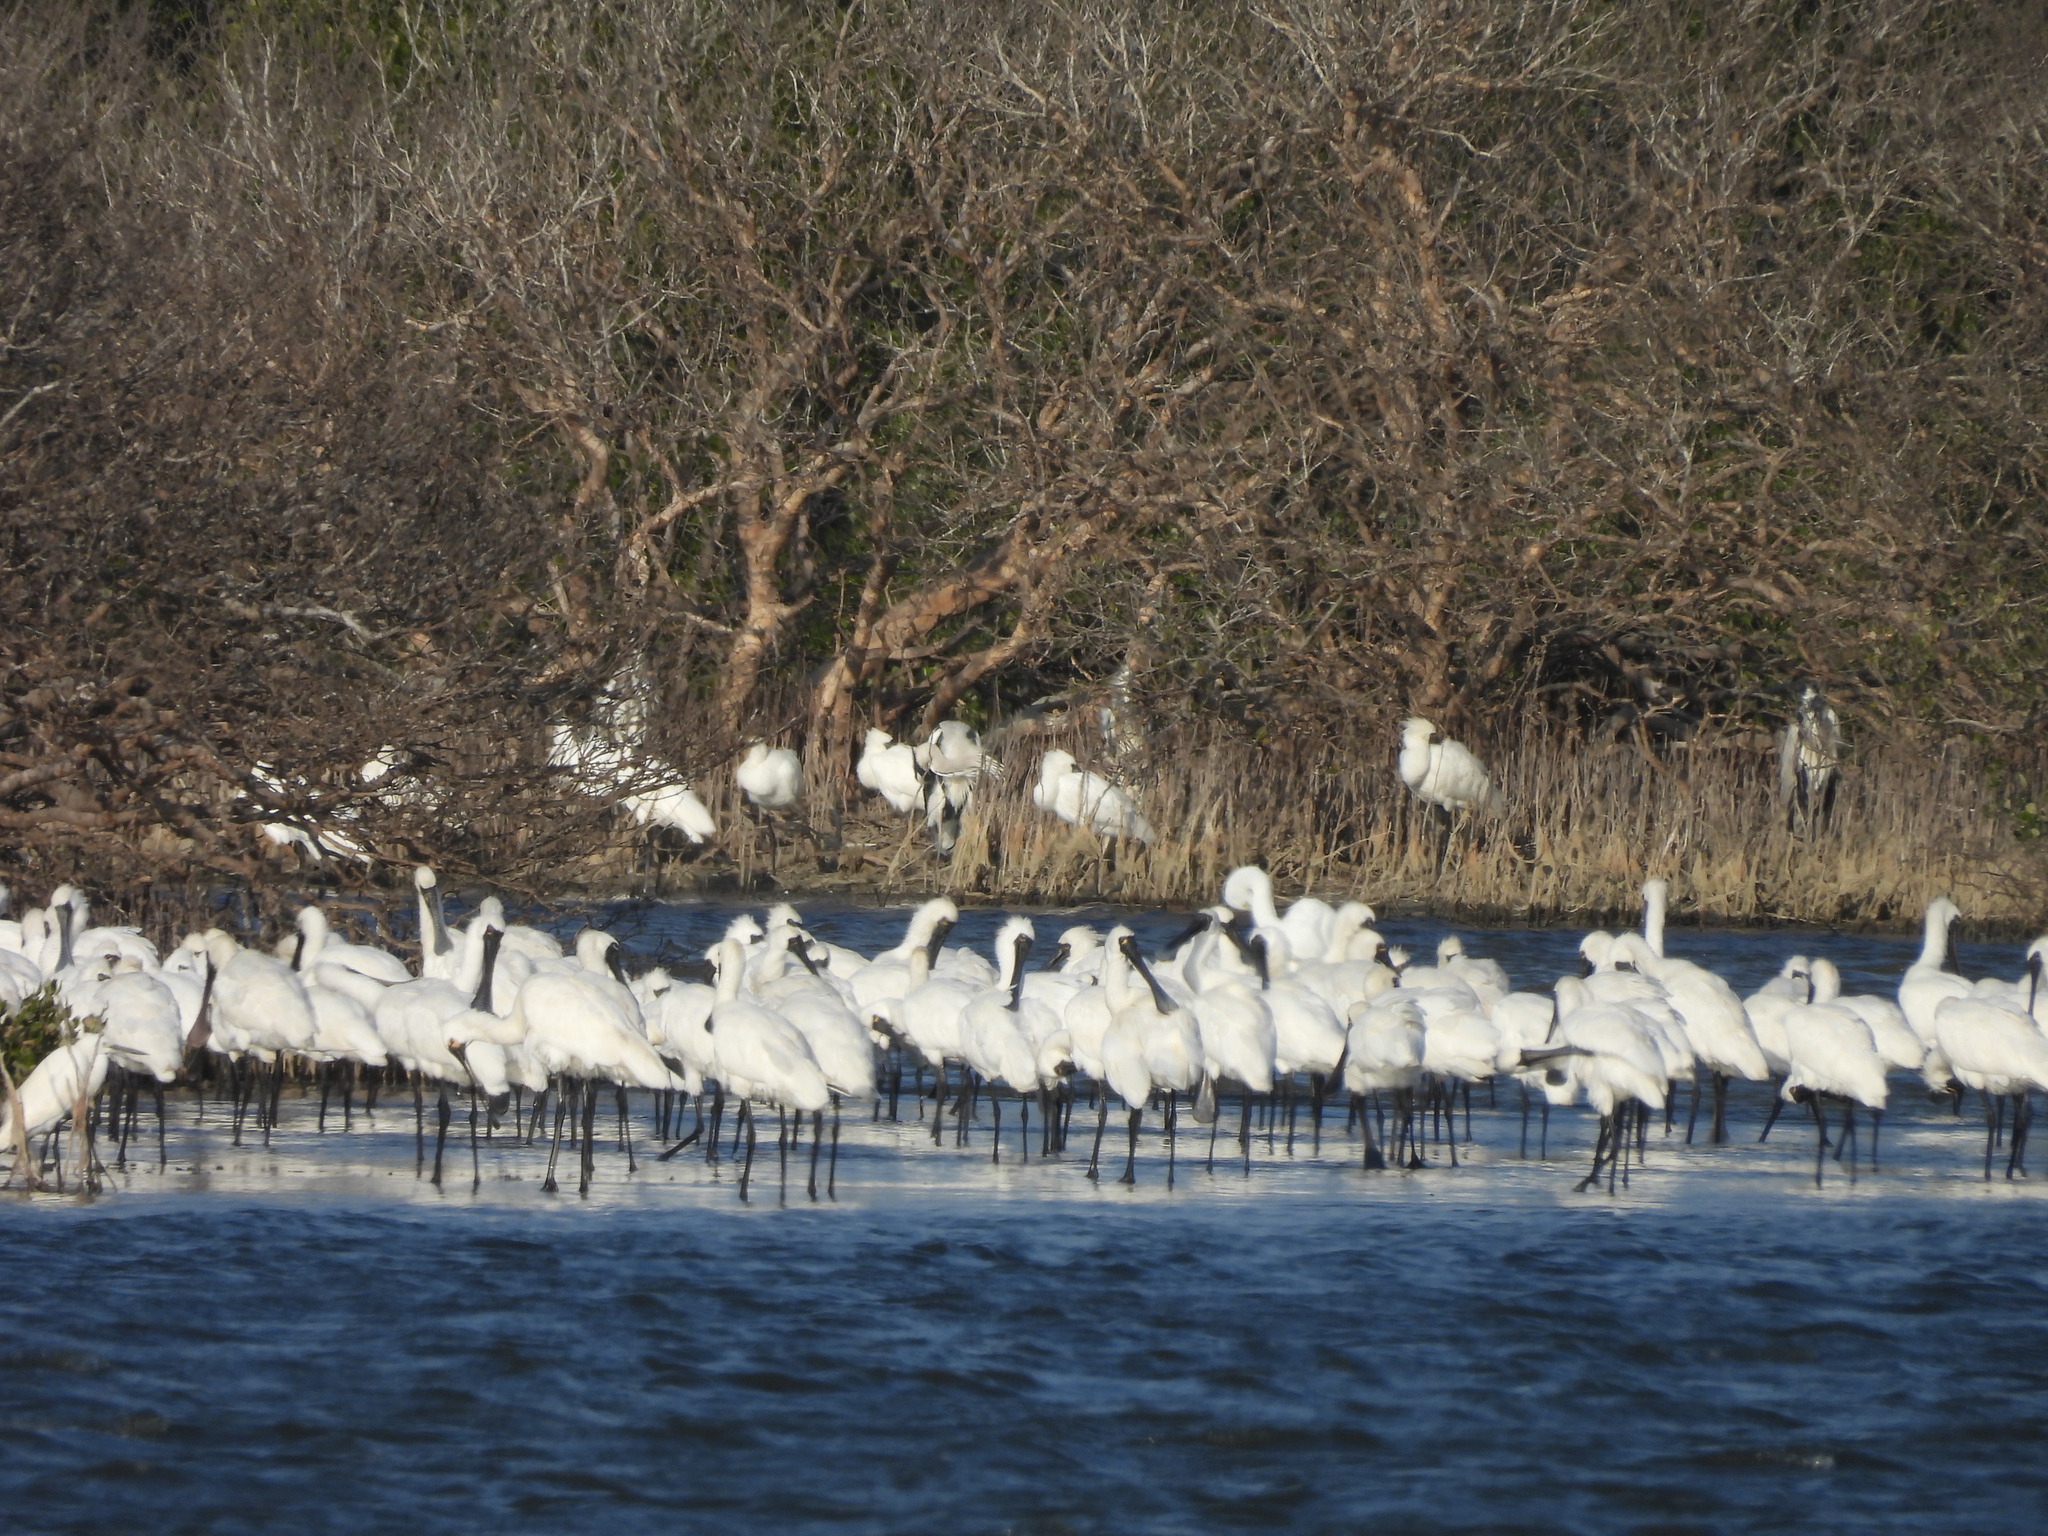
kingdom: Animalia
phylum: Chordata
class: Aves
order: Pelecaniformes
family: Threskiornithidae
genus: Platalea
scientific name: Platalea minor
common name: Black-faced spoonbill
